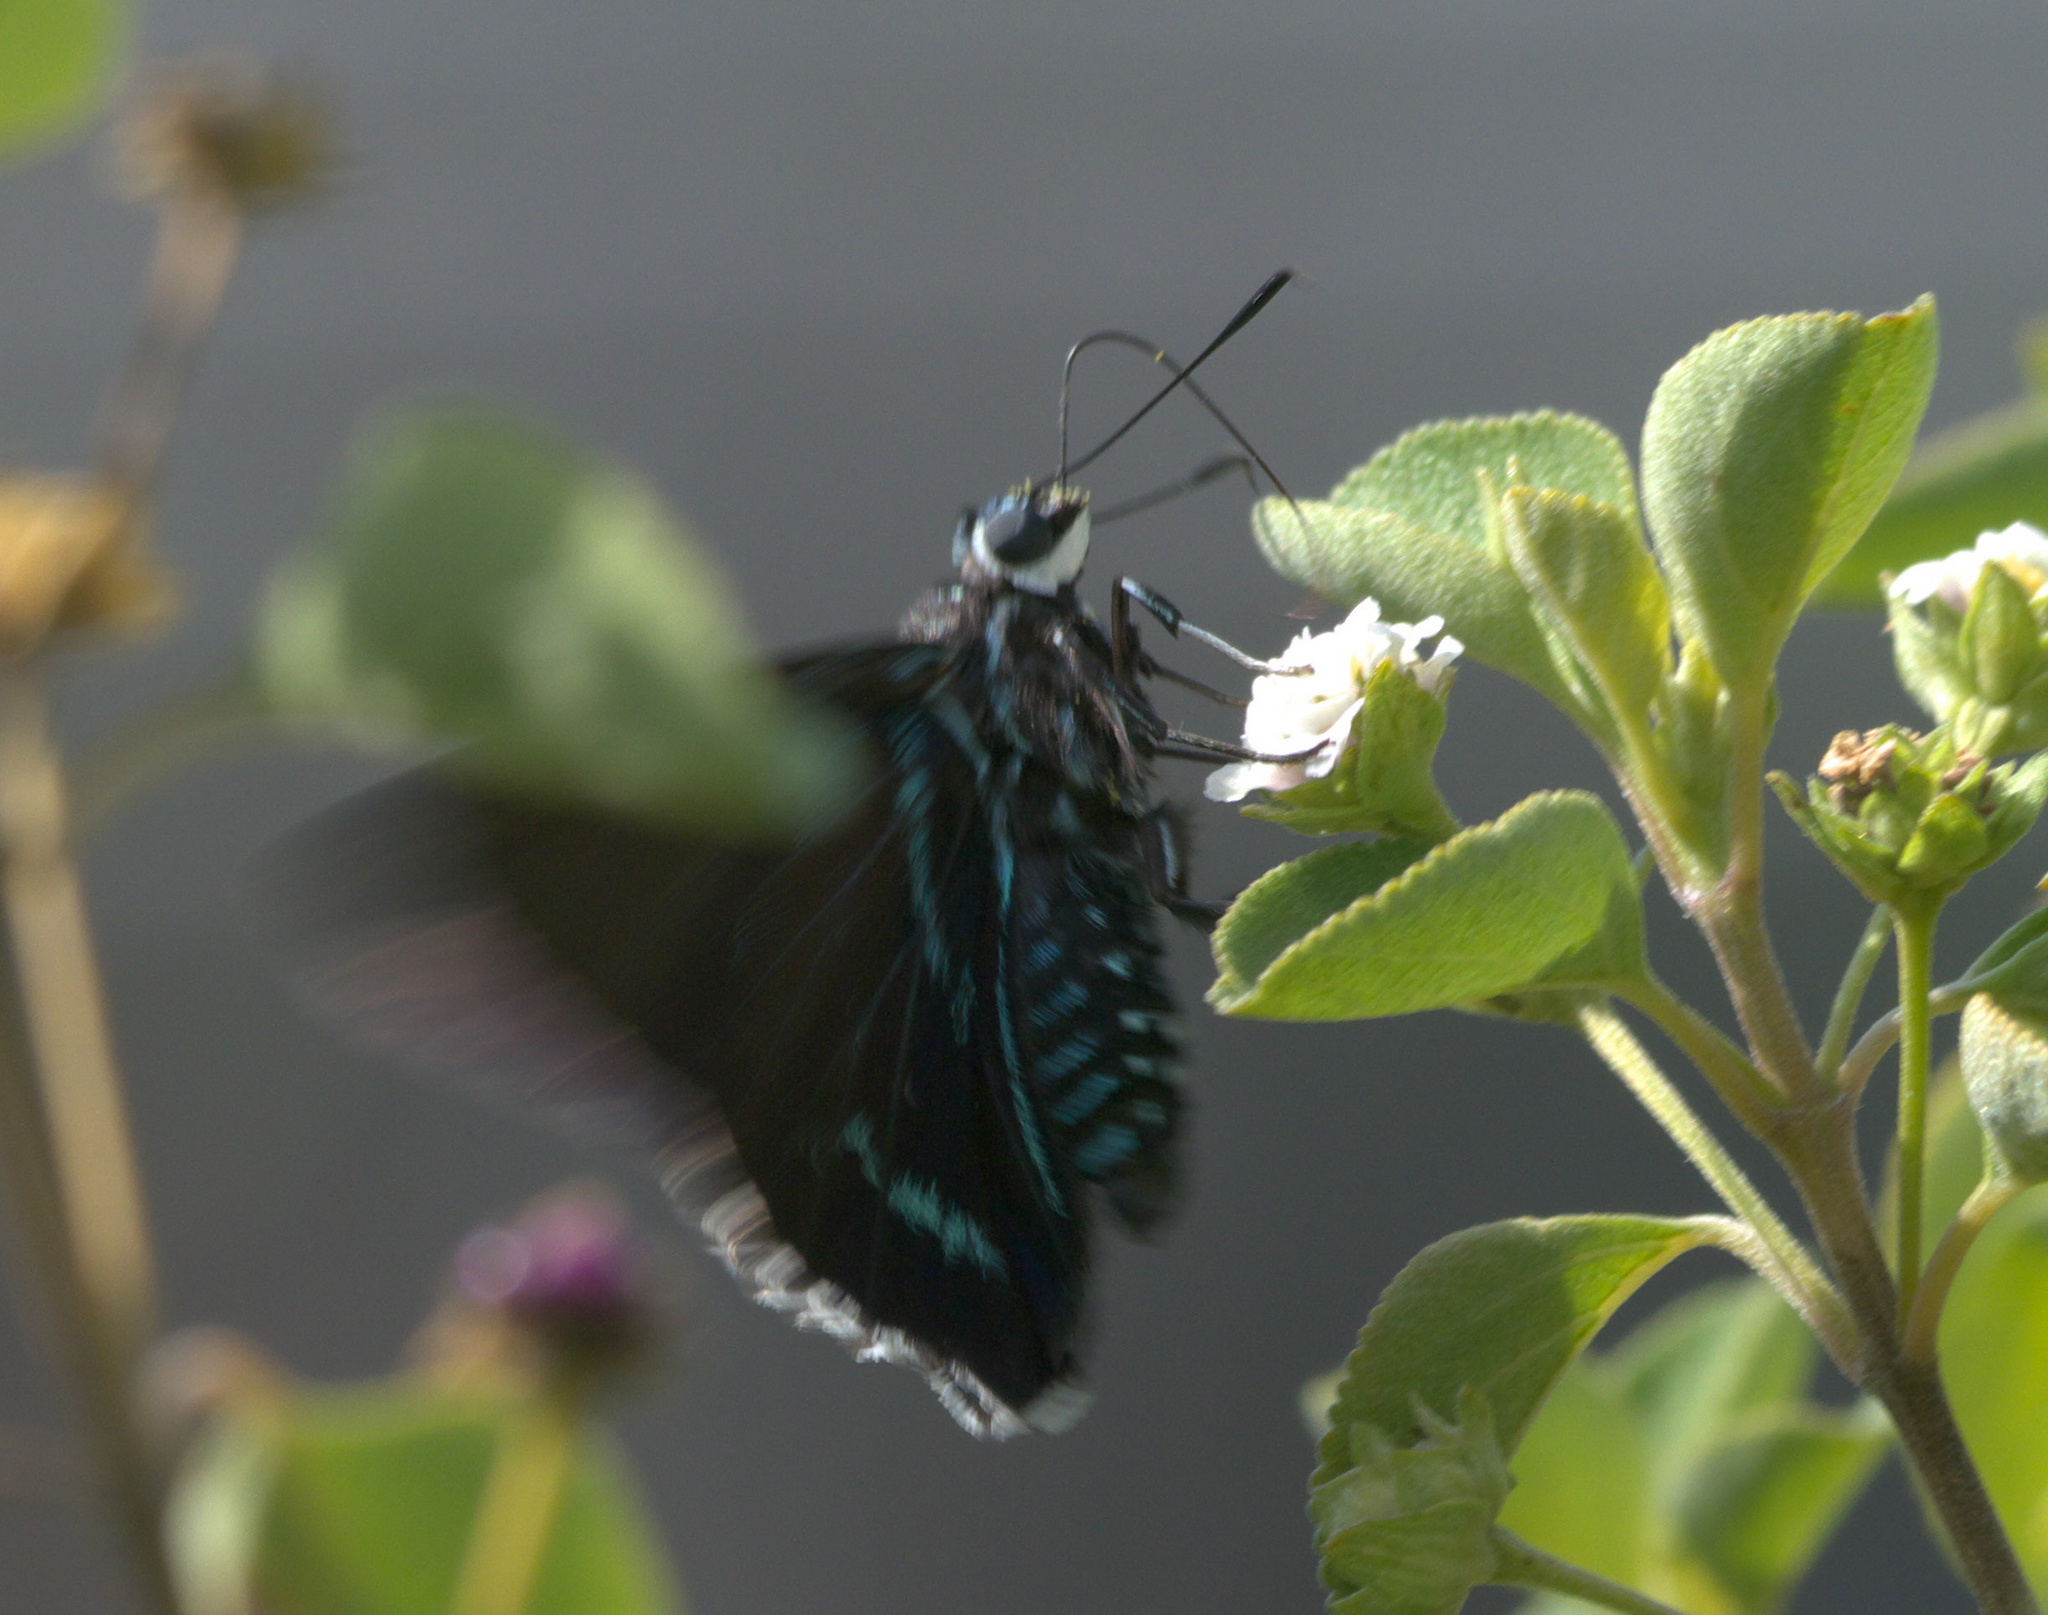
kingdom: Animalia
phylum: Arthropoda
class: Insecta
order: Lepidoptera
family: Hesperiidae
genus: Phocides
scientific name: Phocides pigmalion
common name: Mangrove skipper
